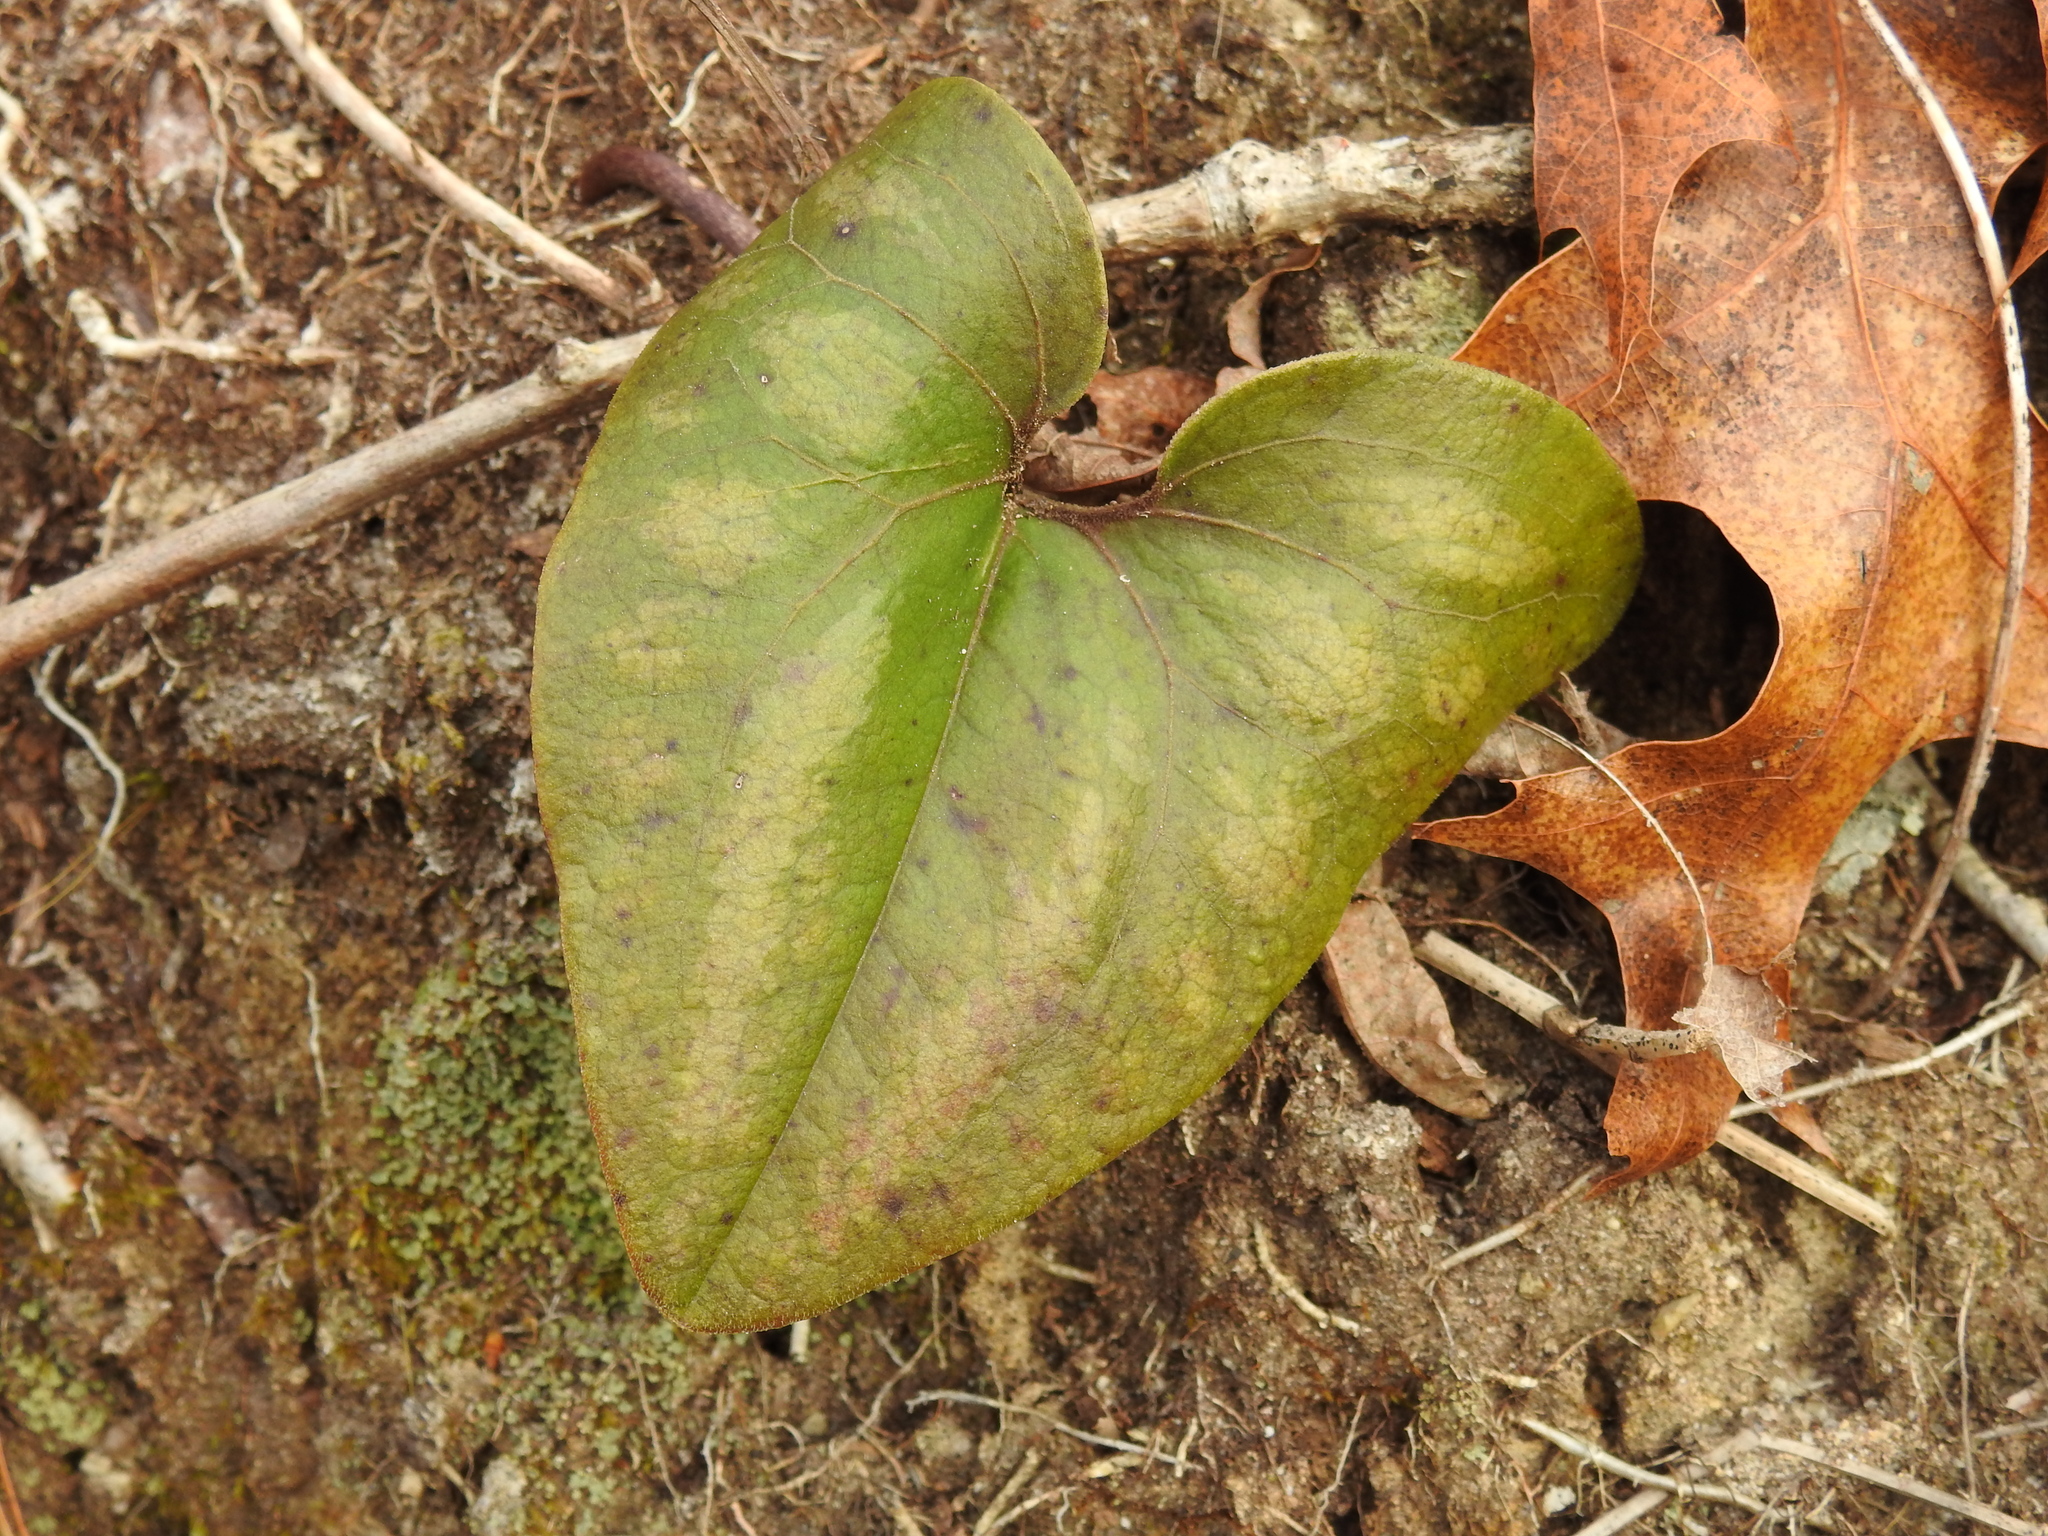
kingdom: Plantae
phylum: Tracheophyta
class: Magnoliopsida
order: Piperales
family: Aristolochiaceae
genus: Hexastylis
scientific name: Hexastylis arifolia
